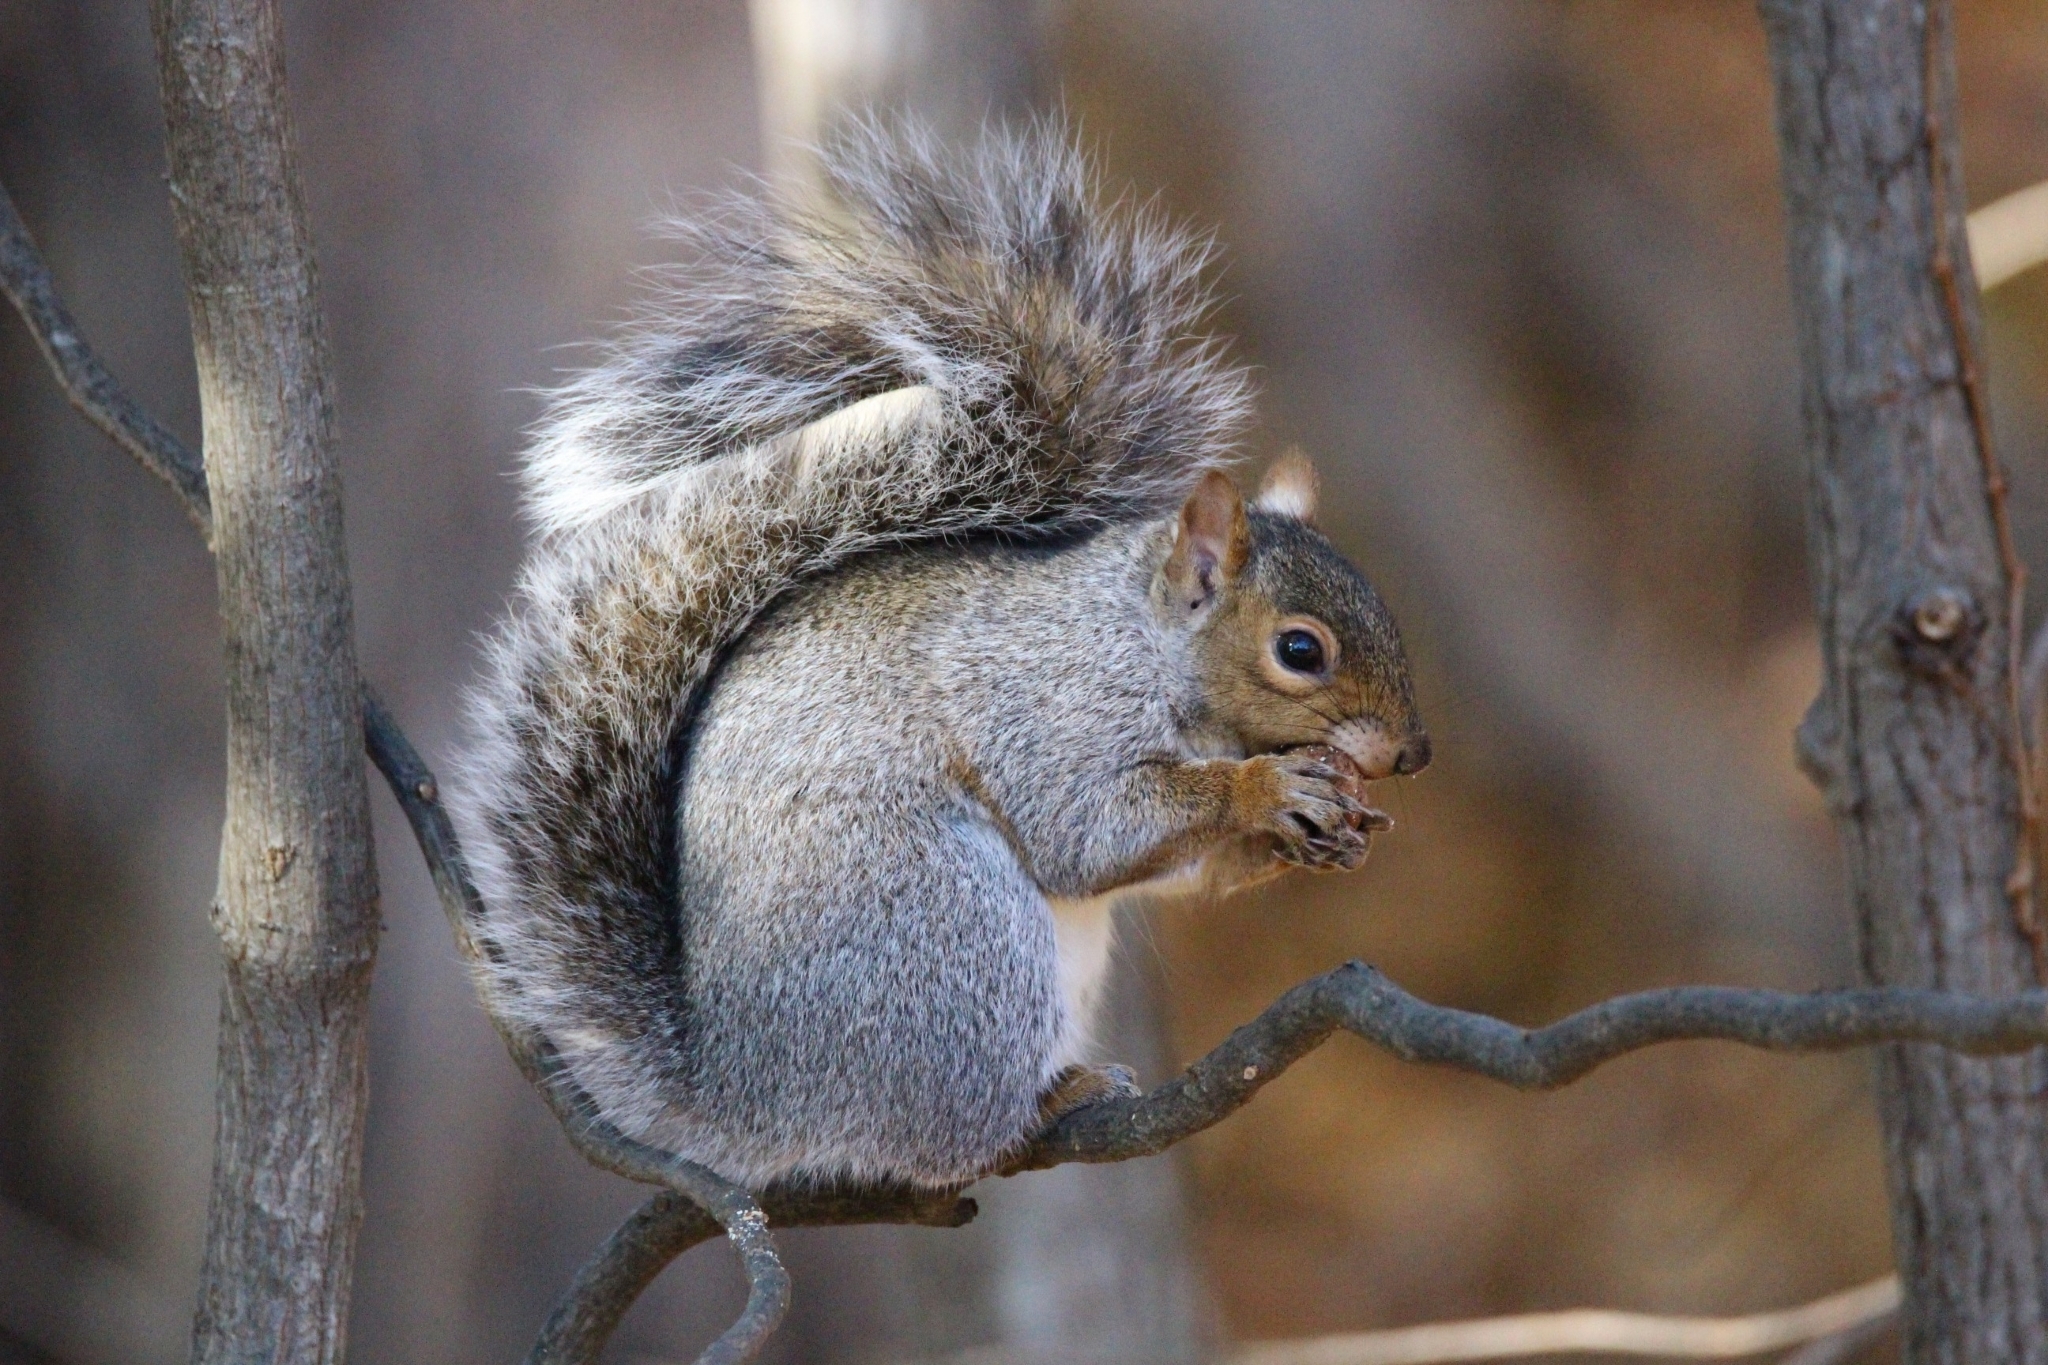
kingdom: Animalia
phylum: Chordata
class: Mammalia
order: Rodentia
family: Sciuridae
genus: Sciurus
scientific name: Sciurus carolinensis
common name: Eastern gray squirrel
